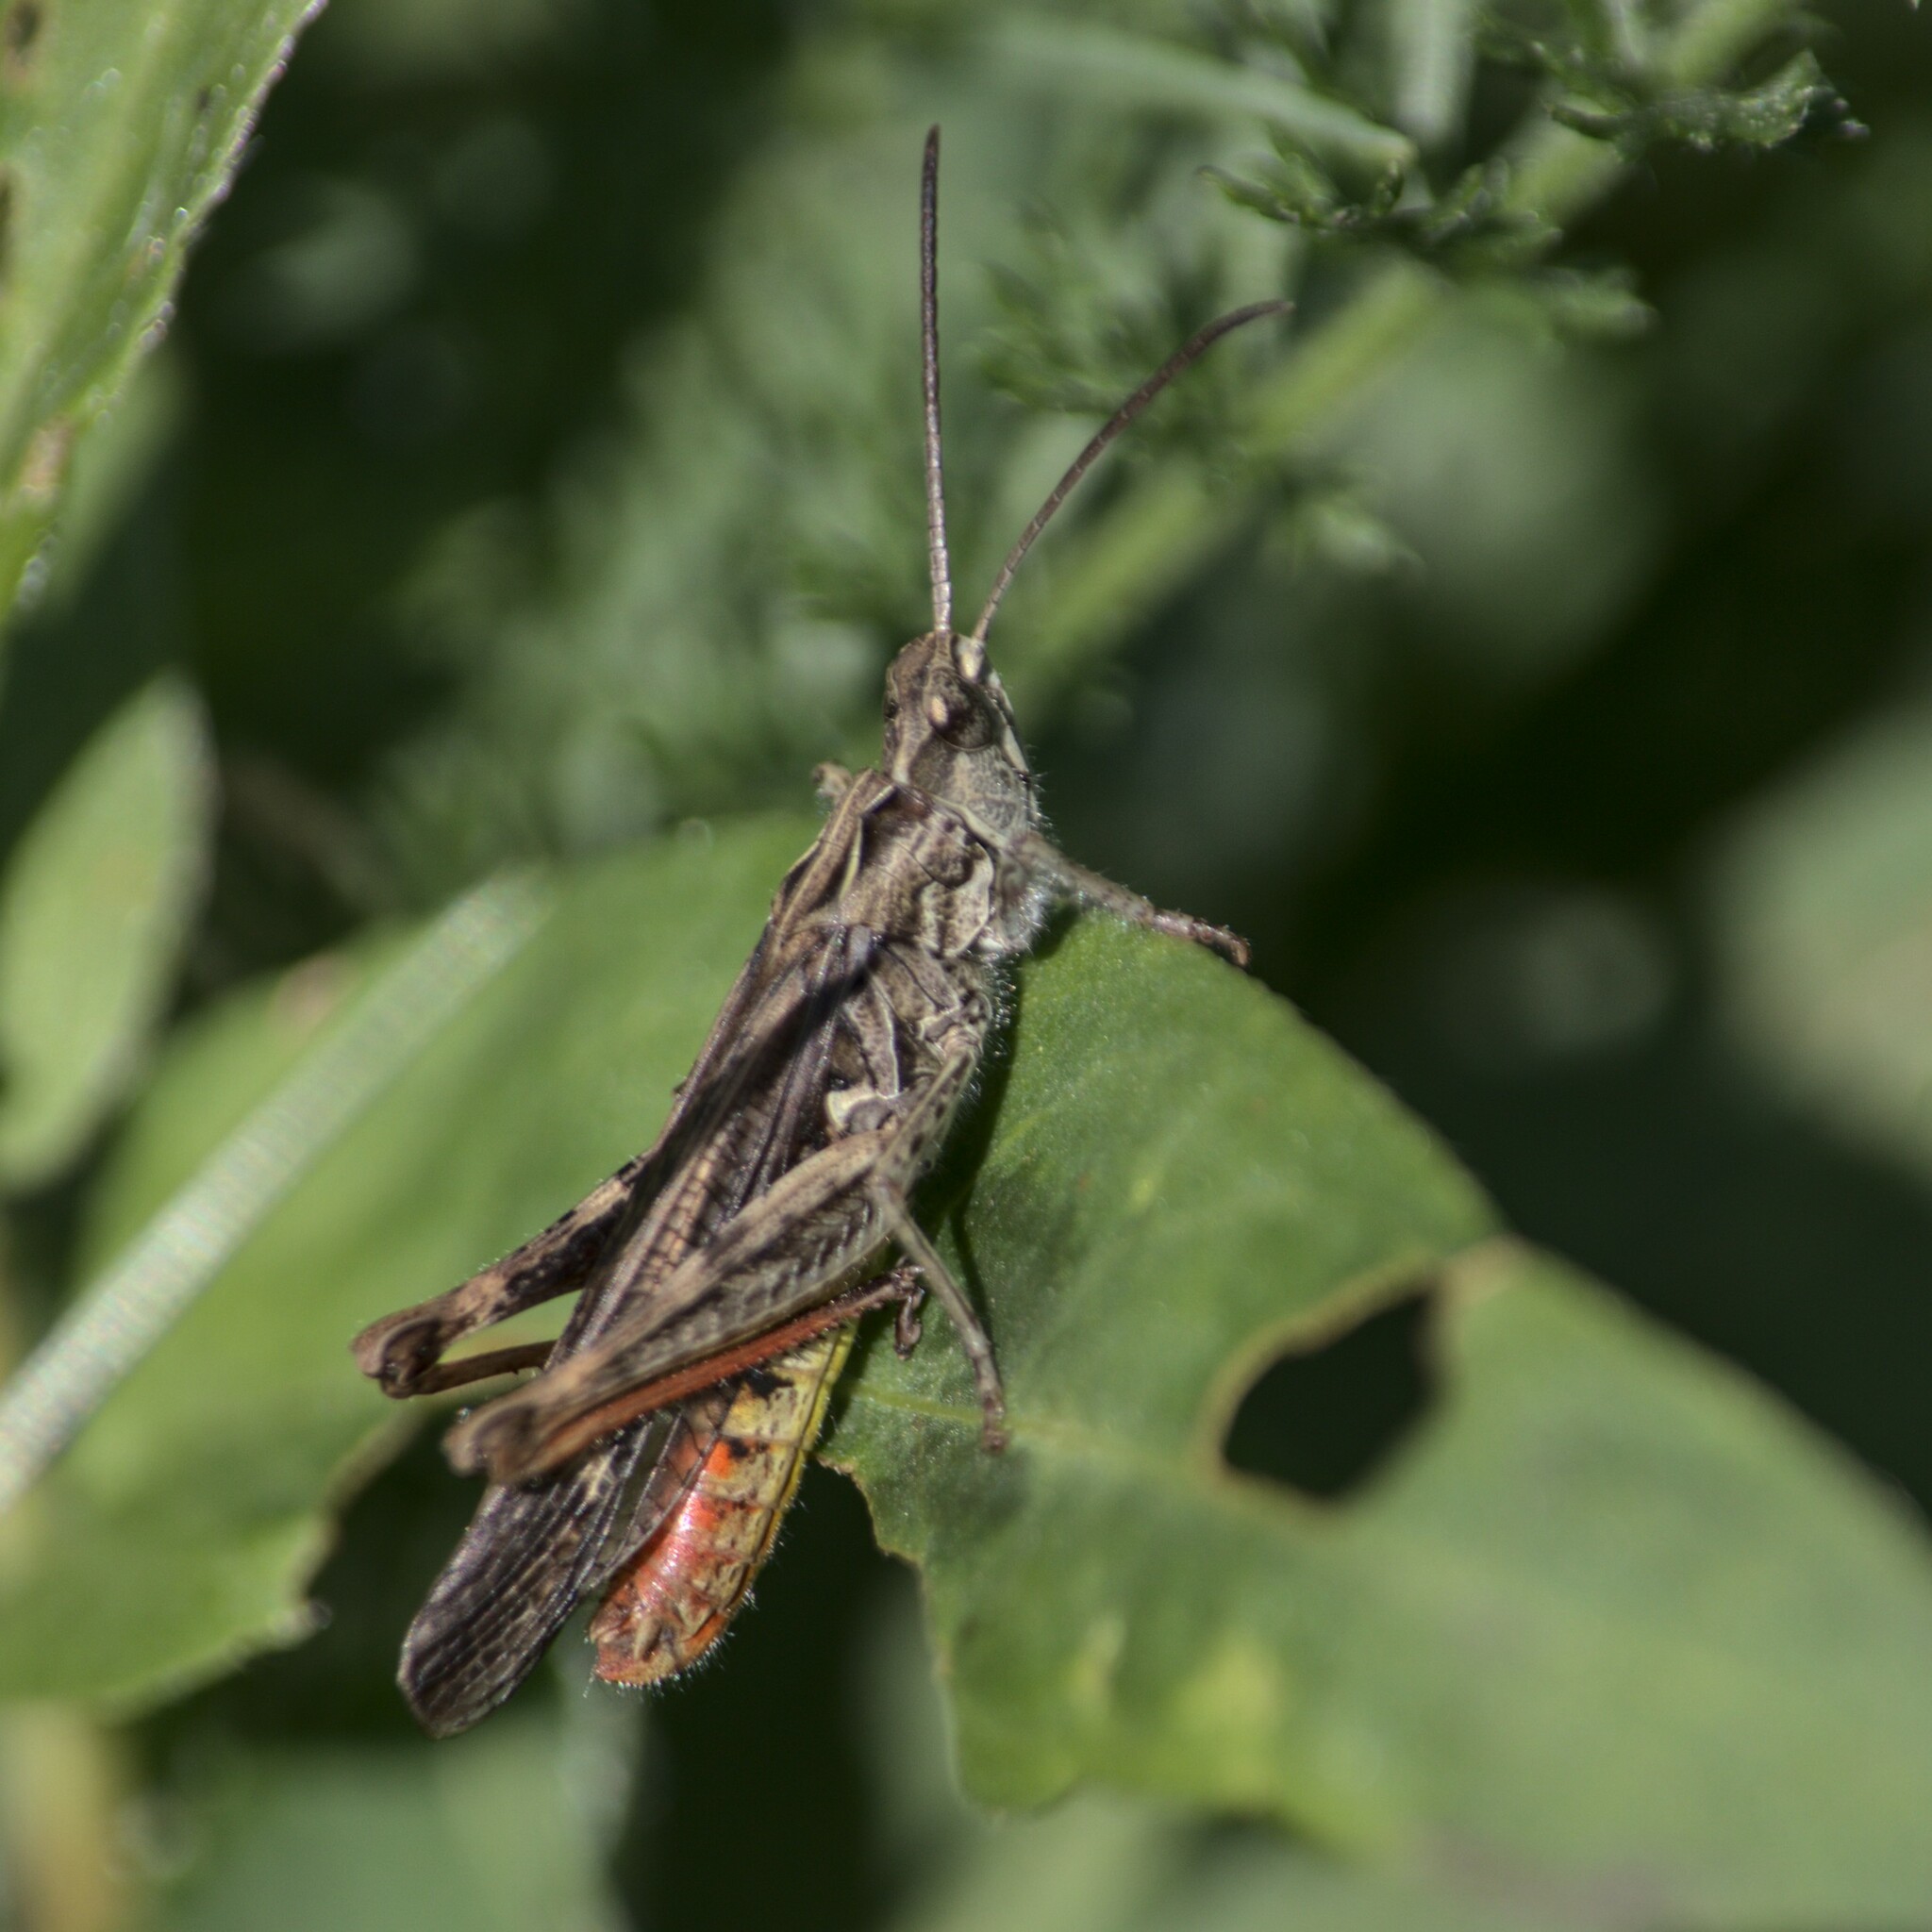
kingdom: Animalia
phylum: Arthropoda
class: Insecta
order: Orthoptera
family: Acrididae
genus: Chorthippus
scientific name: Chorthippus brunneus
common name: Field grasshopper
